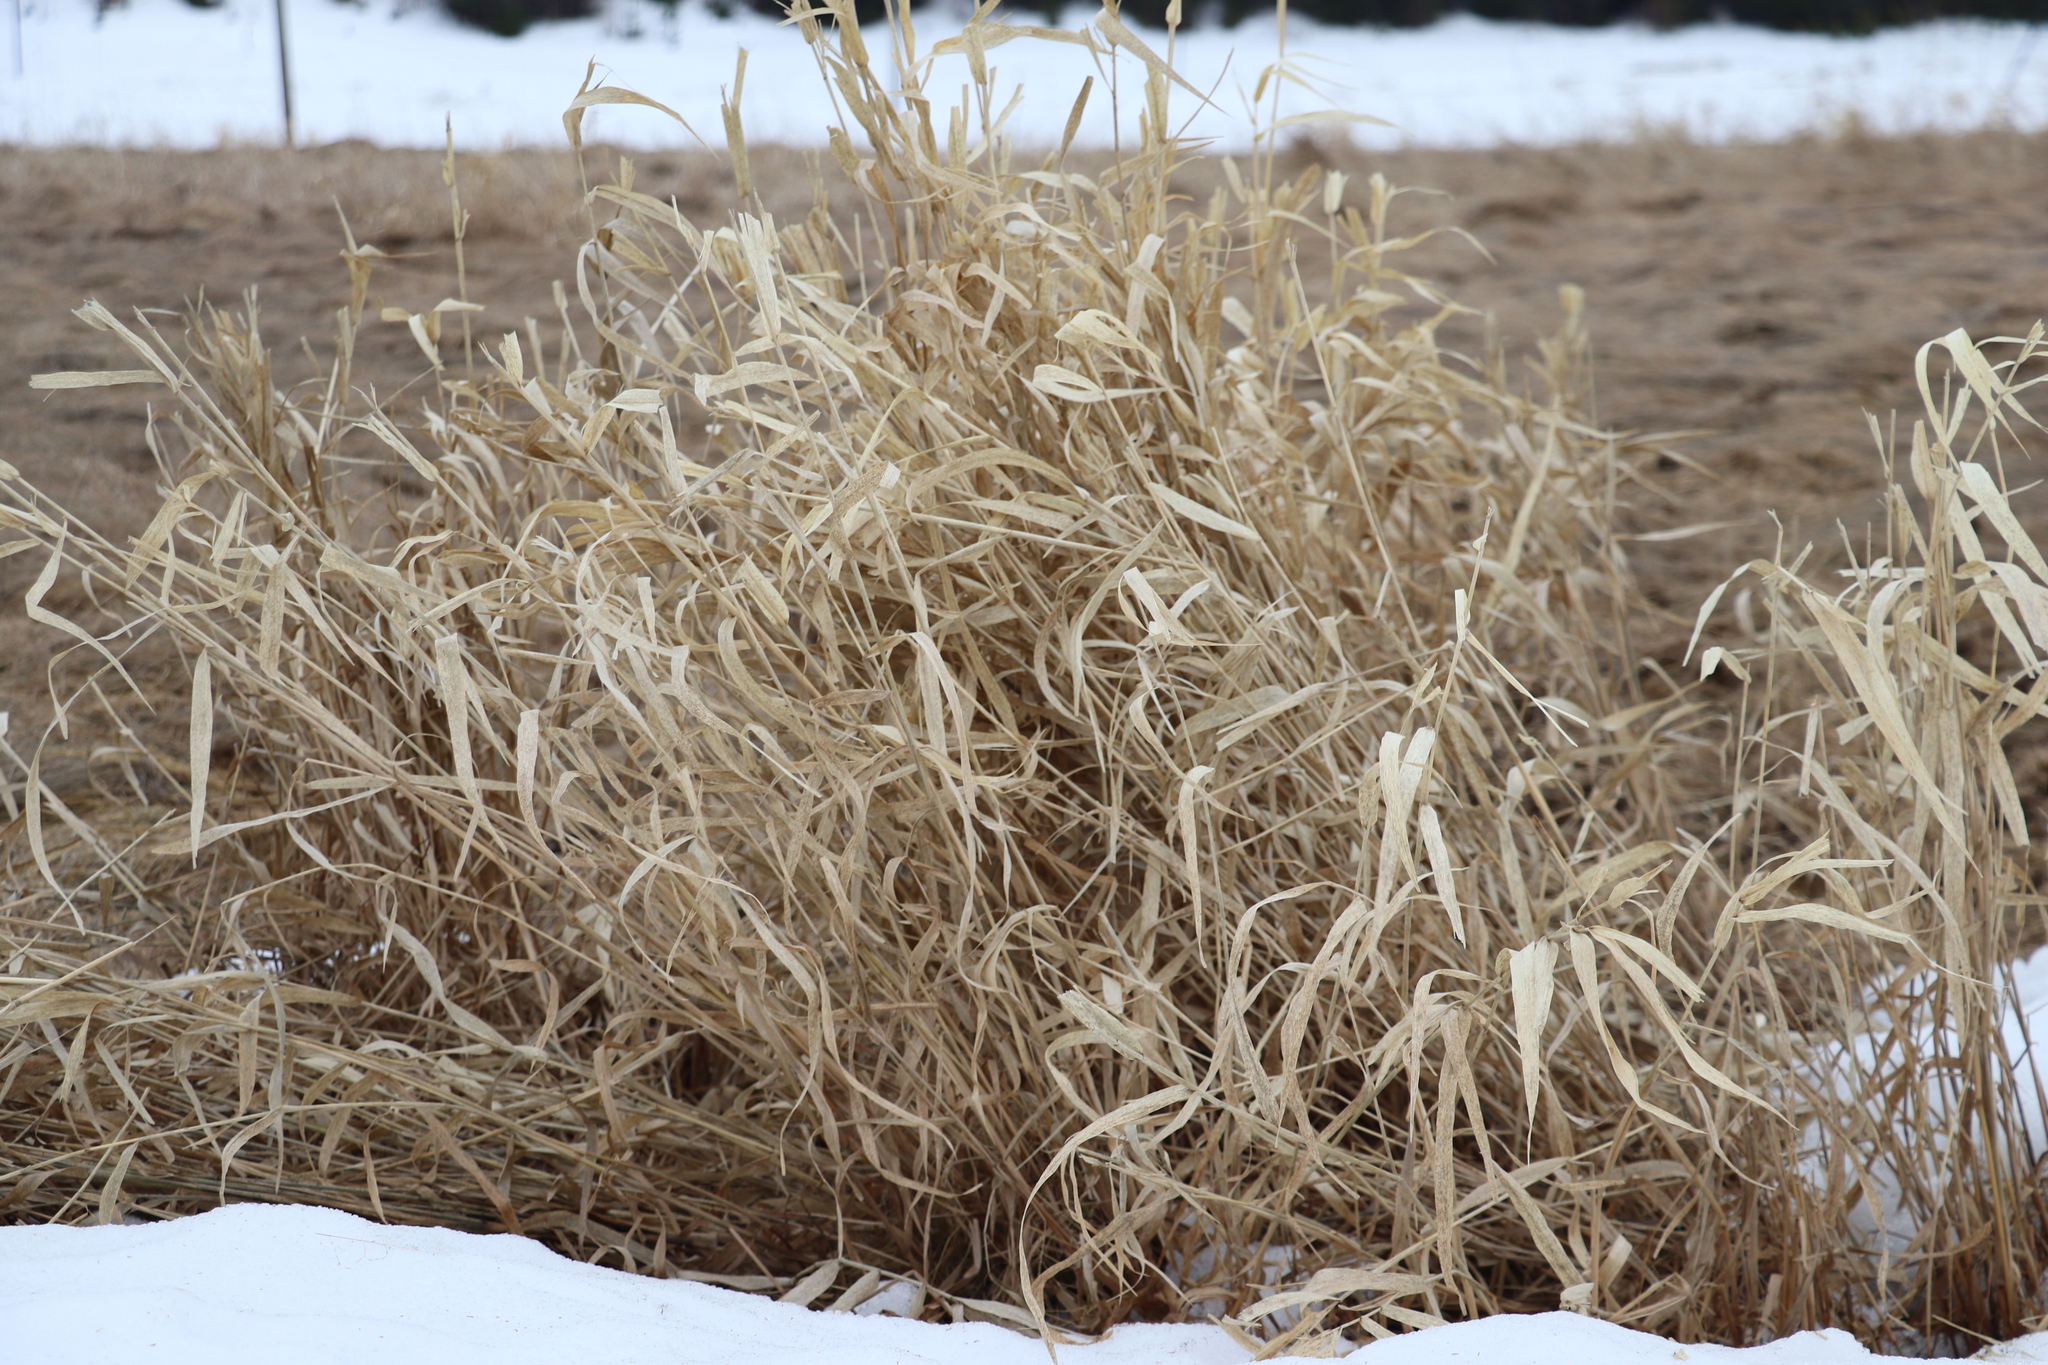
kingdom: Plantae
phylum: Tracheophyta
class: Liliopsida
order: Poales
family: Poaceae
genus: Phalaris
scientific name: Phalaris arundinacea
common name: Reed canary-grass
